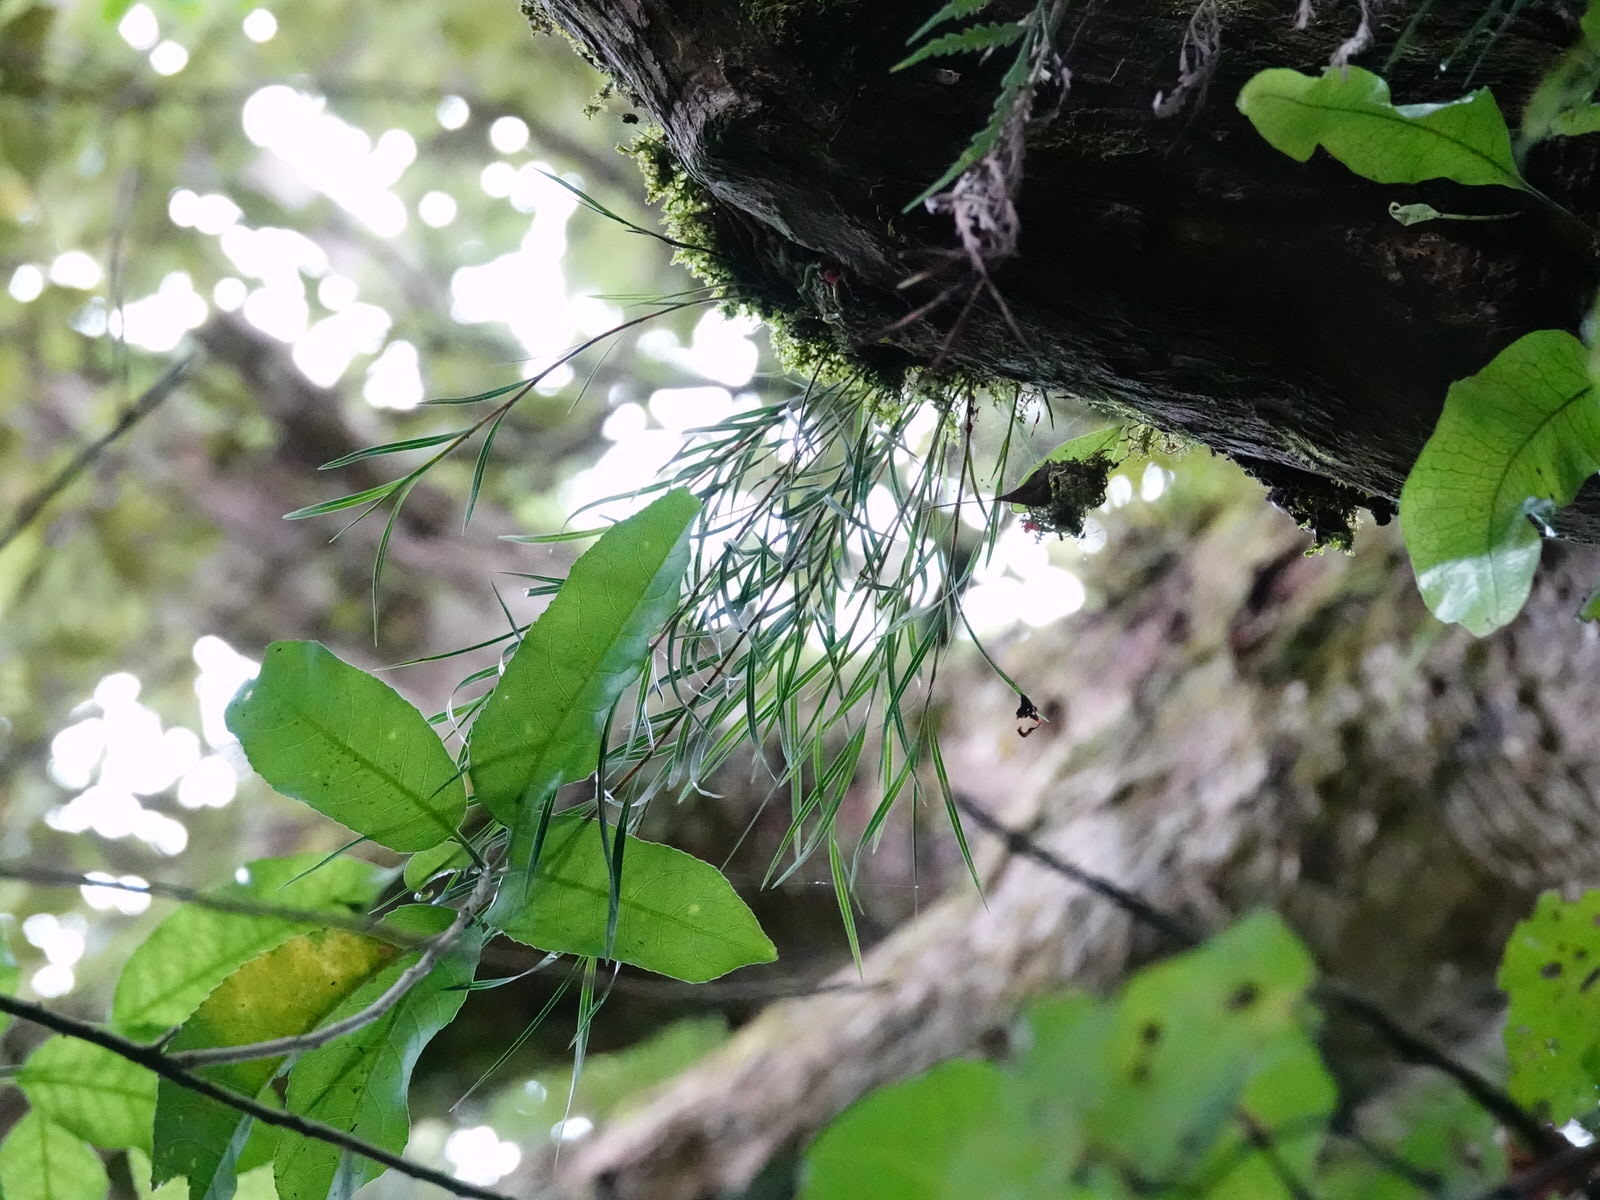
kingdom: Plantae
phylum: Tracheophyta
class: Liliopsida
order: Asparagales
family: Orchidaceae
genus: Earina
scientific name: Earina mucronata
